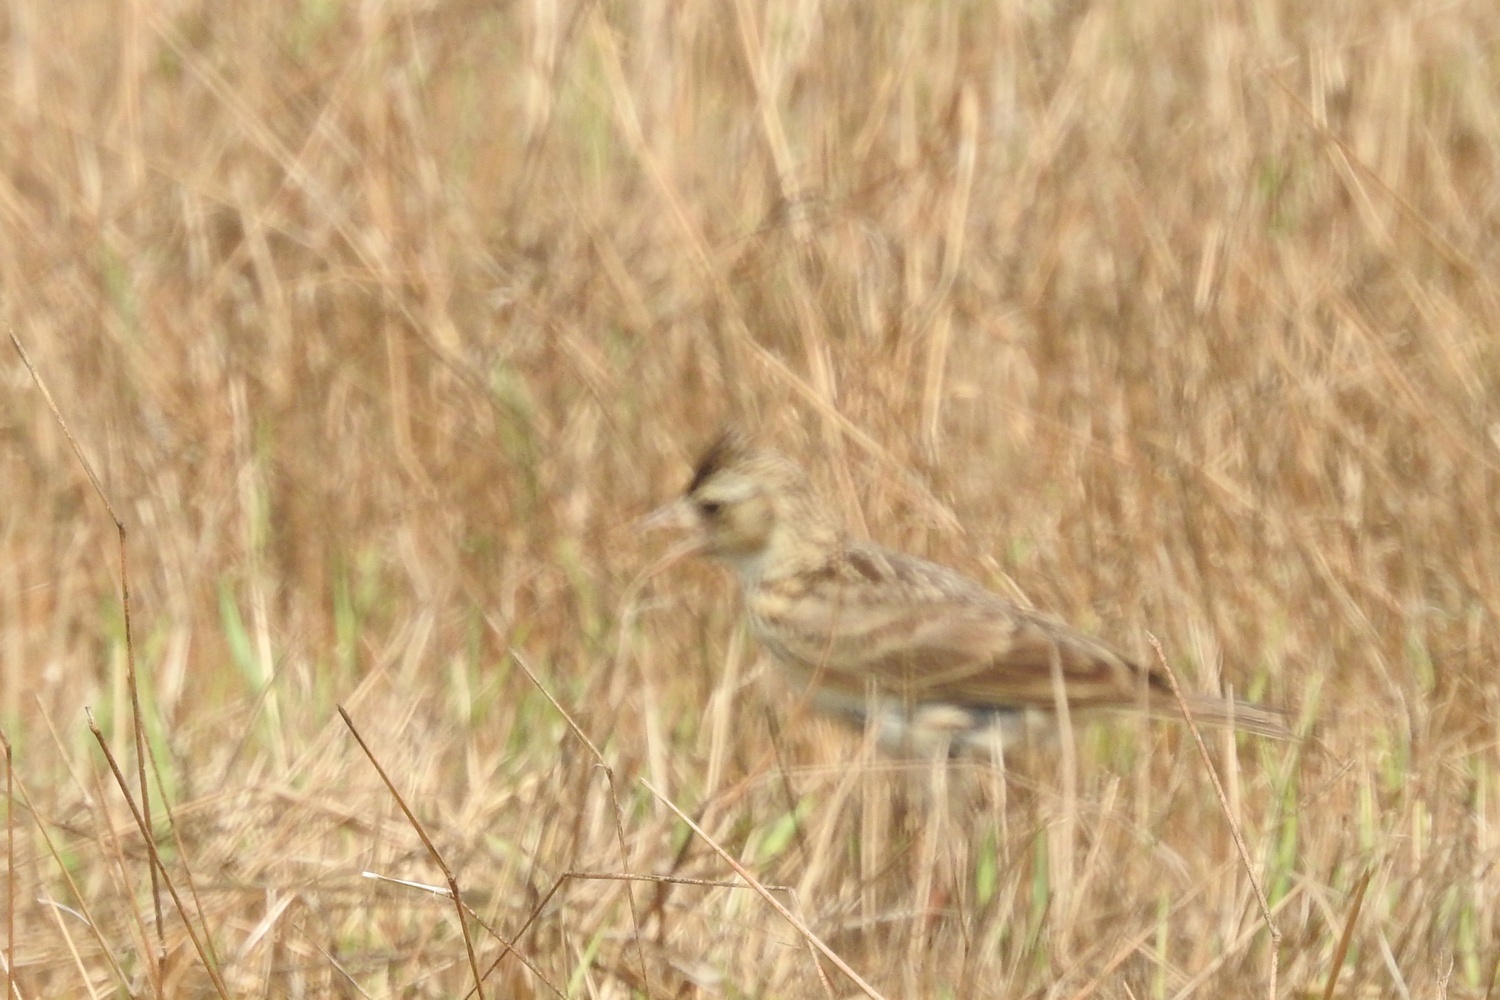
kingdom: Animalia
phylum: Chordata
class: Aves
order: Passeriformes
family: Alaudidae
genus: Alauda
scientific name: Alauda gulgula
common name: Oriental skylark
